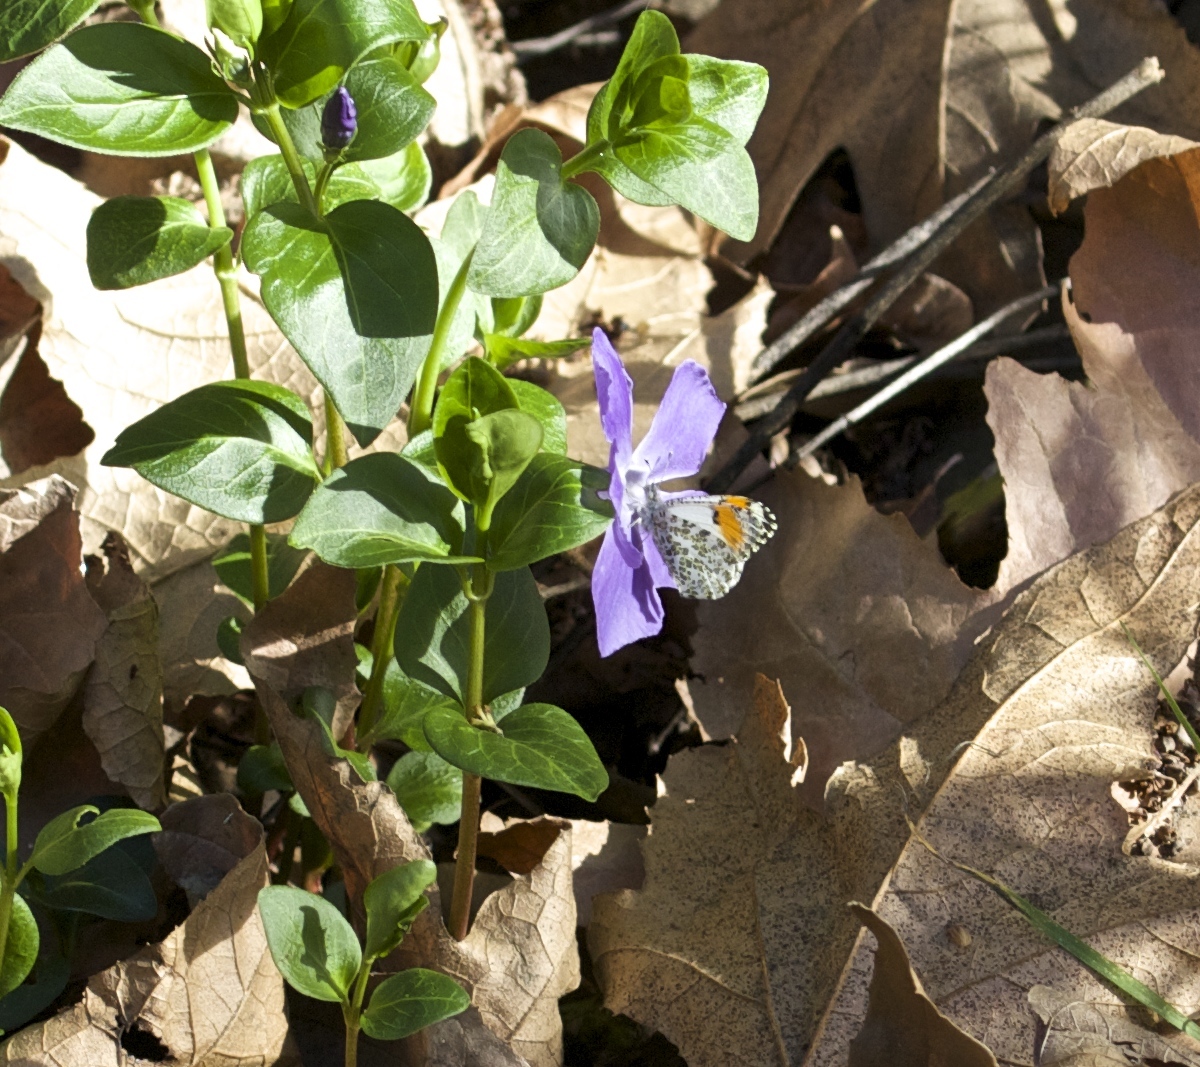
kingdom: Animalia
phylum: Arthropoda
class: Insecta
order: Lepidoptera
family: Pieridae
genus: Anthocharis
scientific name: Anthocharis sara
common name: Sara's orangetip
